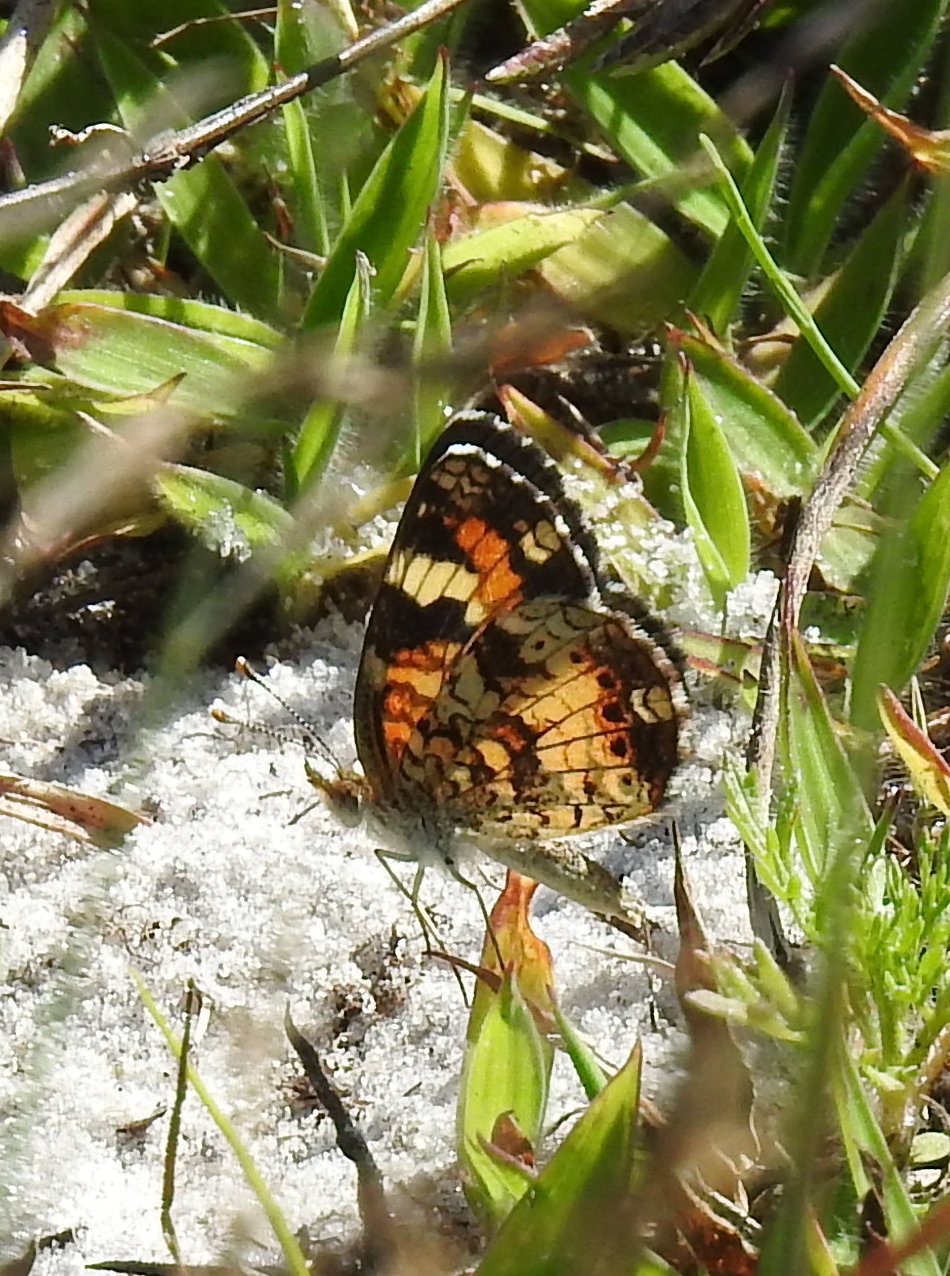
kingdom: Animalia
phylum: Arthropoda
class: Insecta
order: Lepidoptera
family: Nymphalidae
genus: Phyciodes
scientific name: Phyciodes phaon
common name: Phaon crescent
